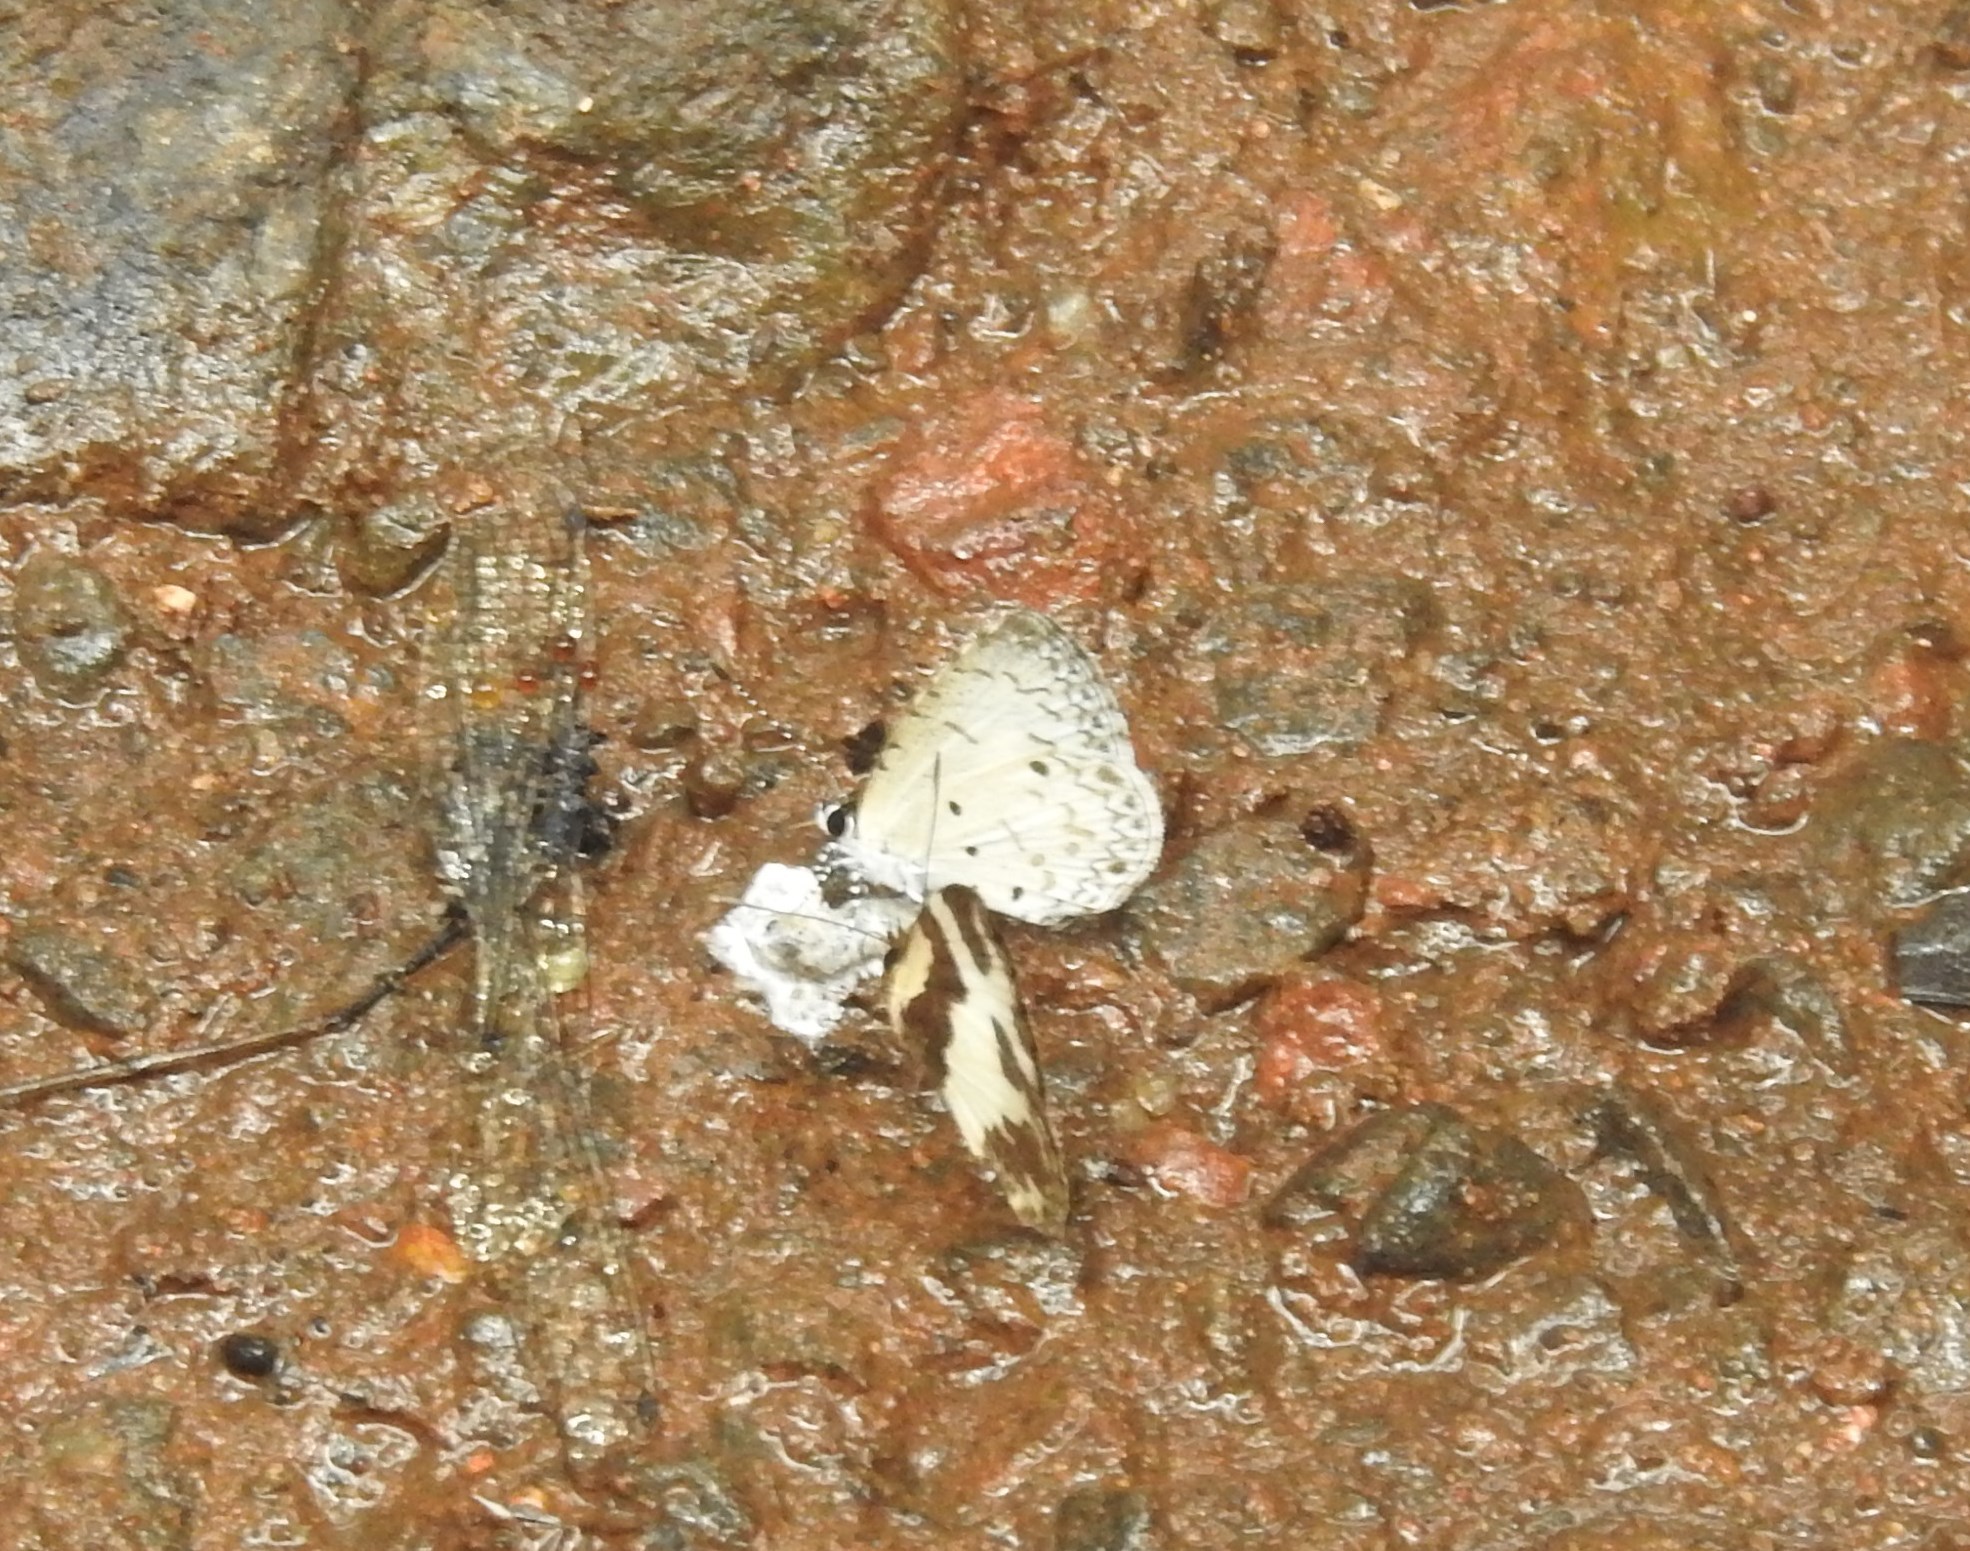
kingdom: Animalia
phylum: Arthropoda
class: Insecta
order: Lepidoptera
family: Lycaenidae
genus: Megisba
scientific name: Megisba malaya
